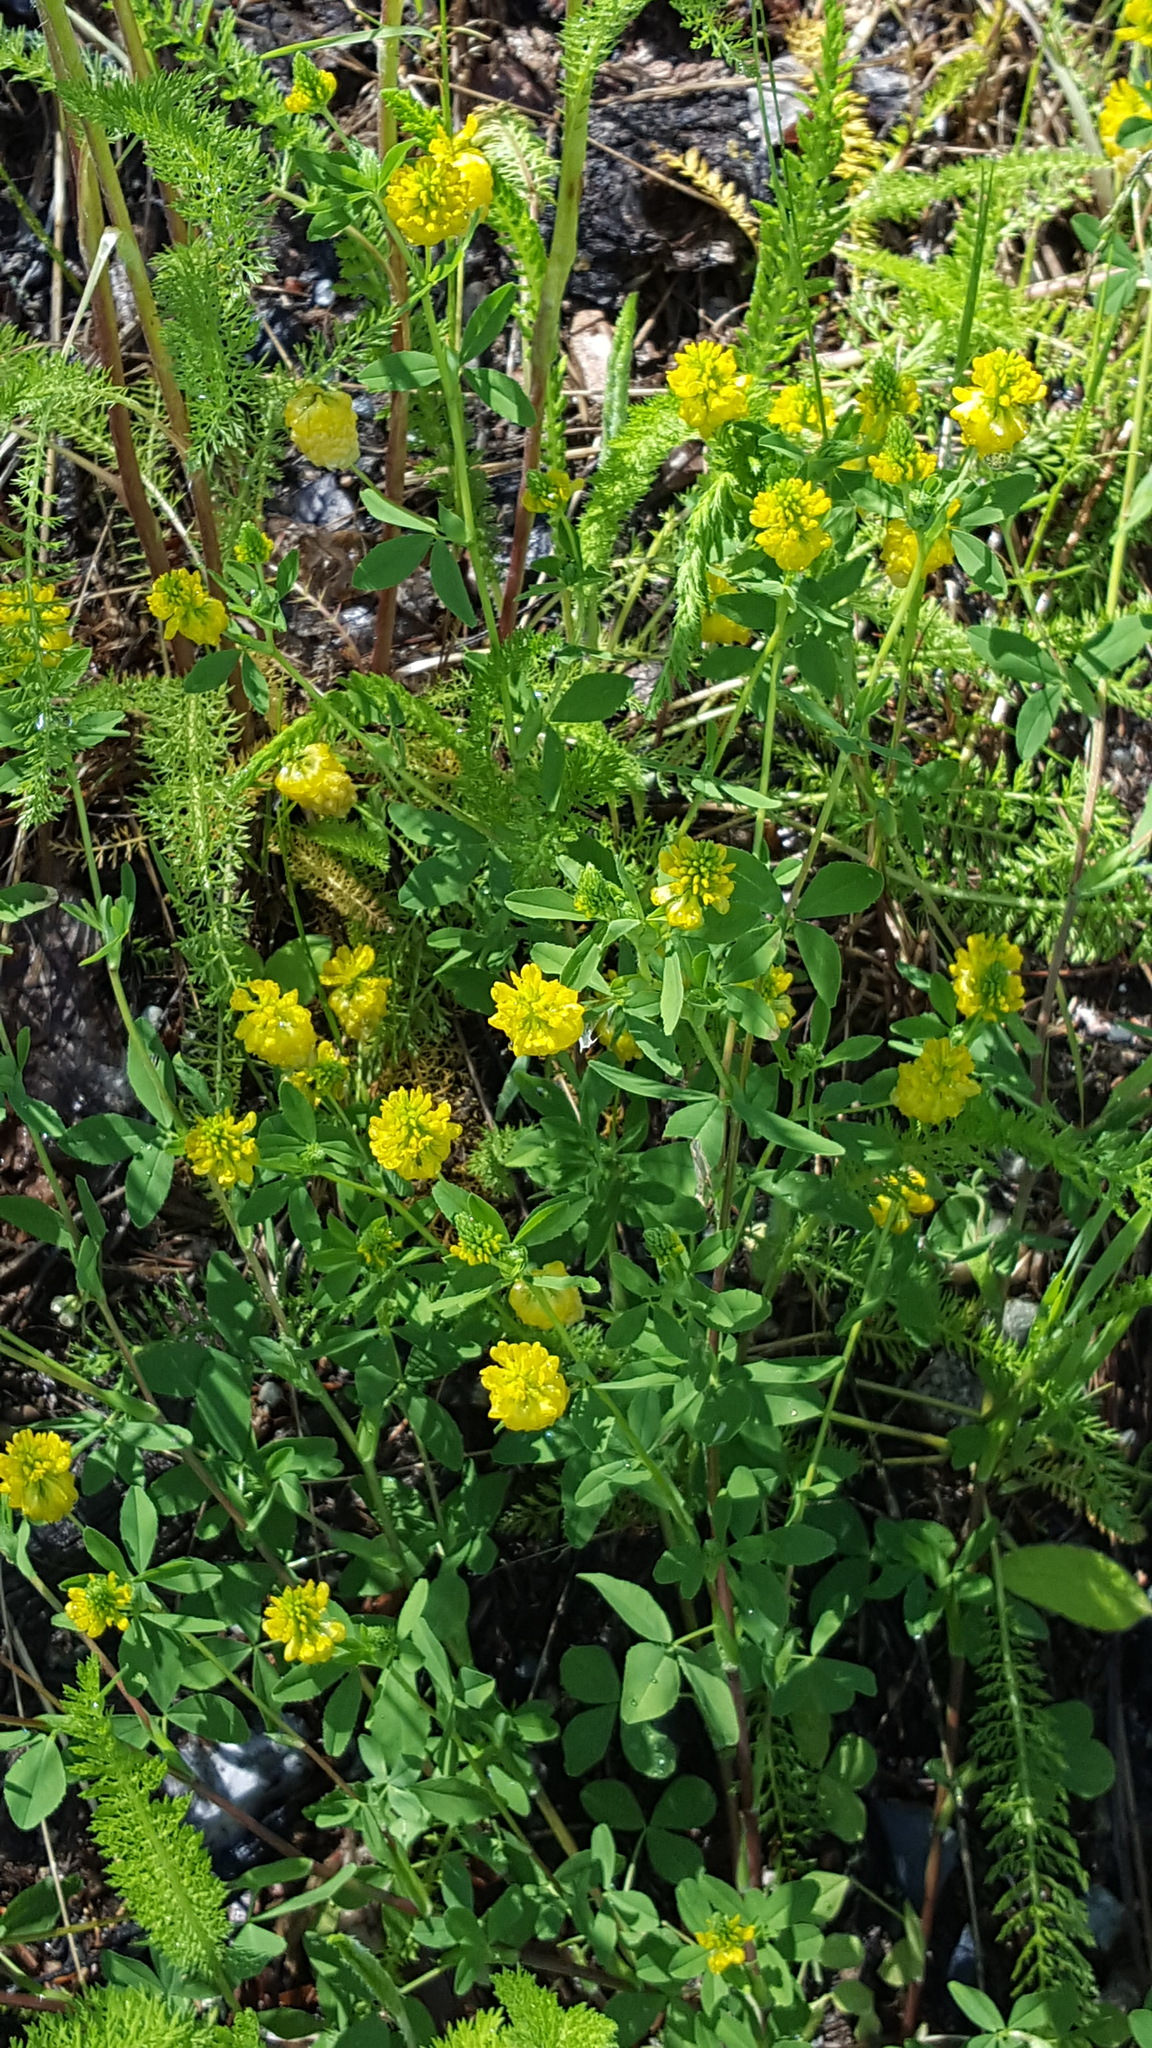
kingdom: Plantae
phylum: Tracheophyta
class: Magnoliopsida
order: Fabales
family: Fabaceae
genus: Trifolium
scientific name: Trifolium aureum
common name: Golden clover
